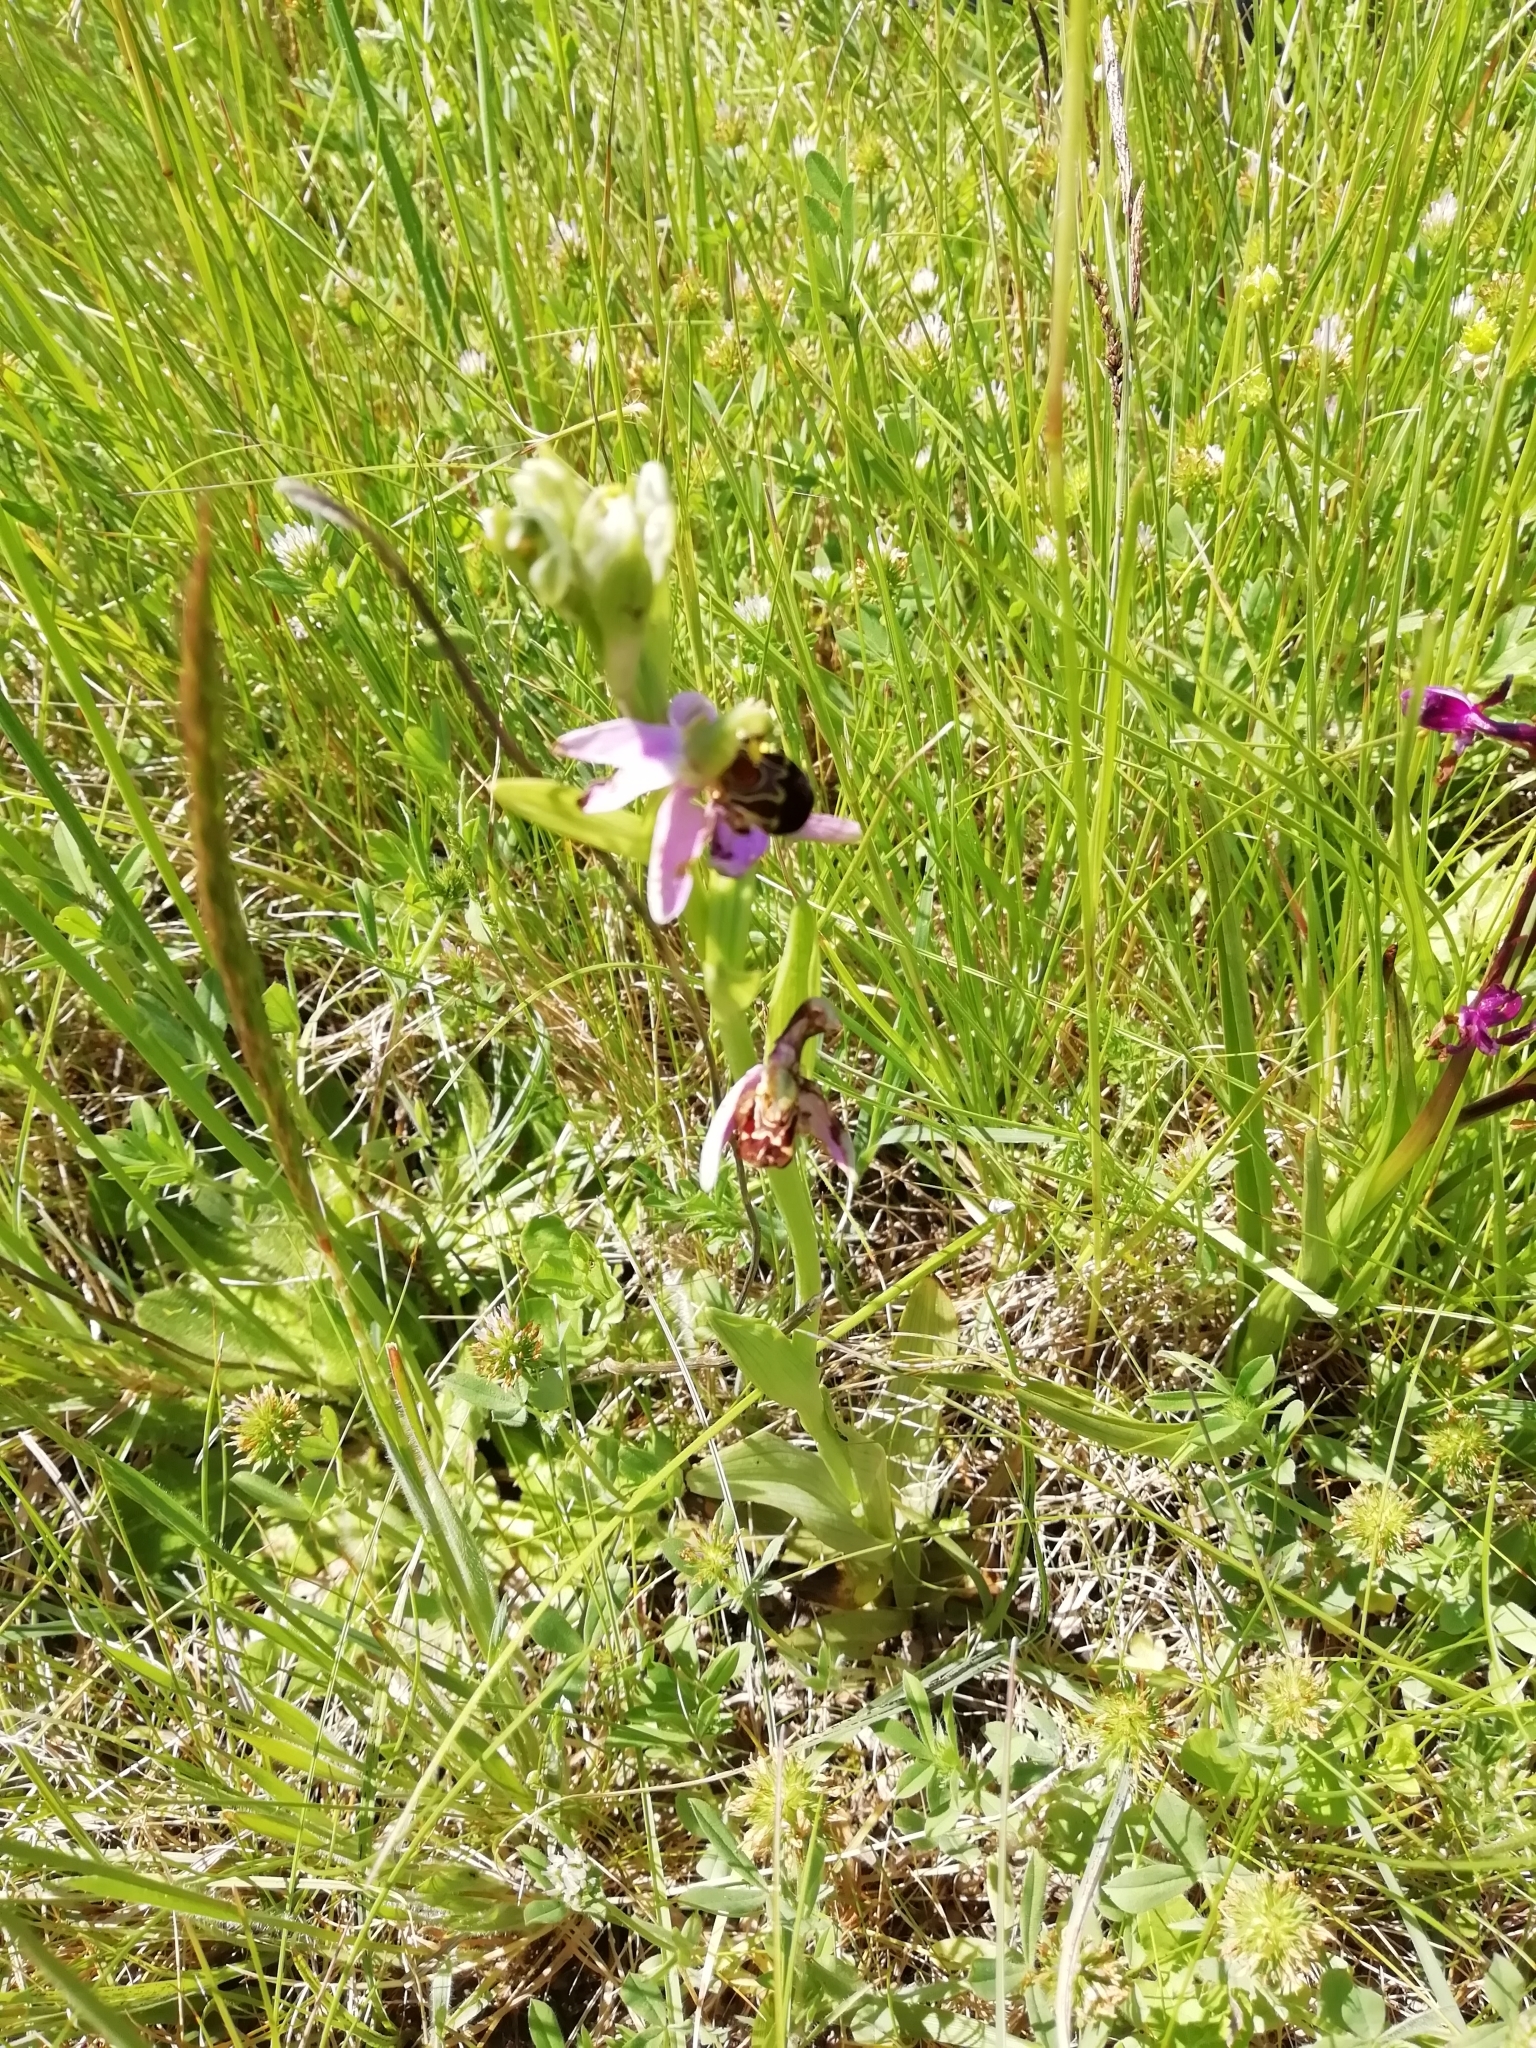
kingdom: Plantae
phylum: Tracheophyta
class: Liliopsida
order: Asparagales
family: Orchidaceae
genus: Ophrys
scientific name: Ophrys apifera
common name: Bee orchid
